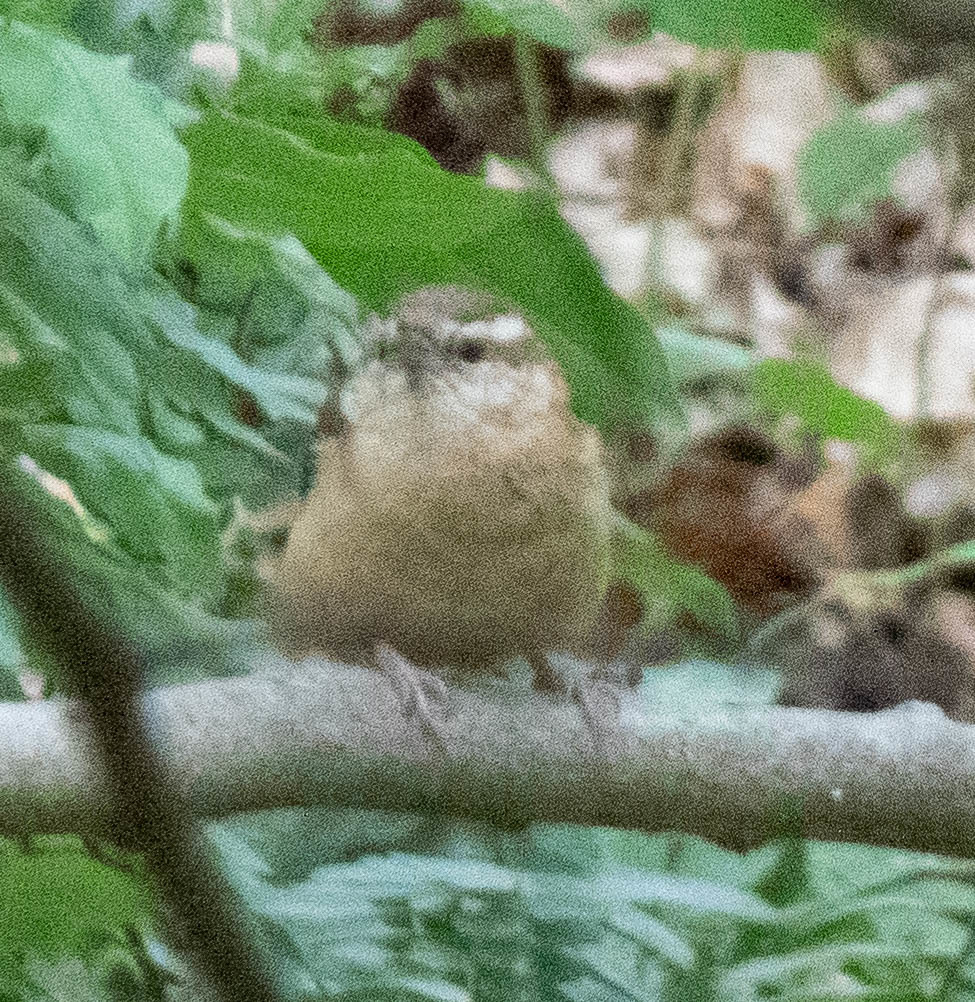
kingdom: Animalia
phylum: Chordata
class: Aves
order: Passeriformes
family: Troglodytidae
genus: Thryothorus
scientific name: Thryothorus ludovicianus
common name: Carolina wren
